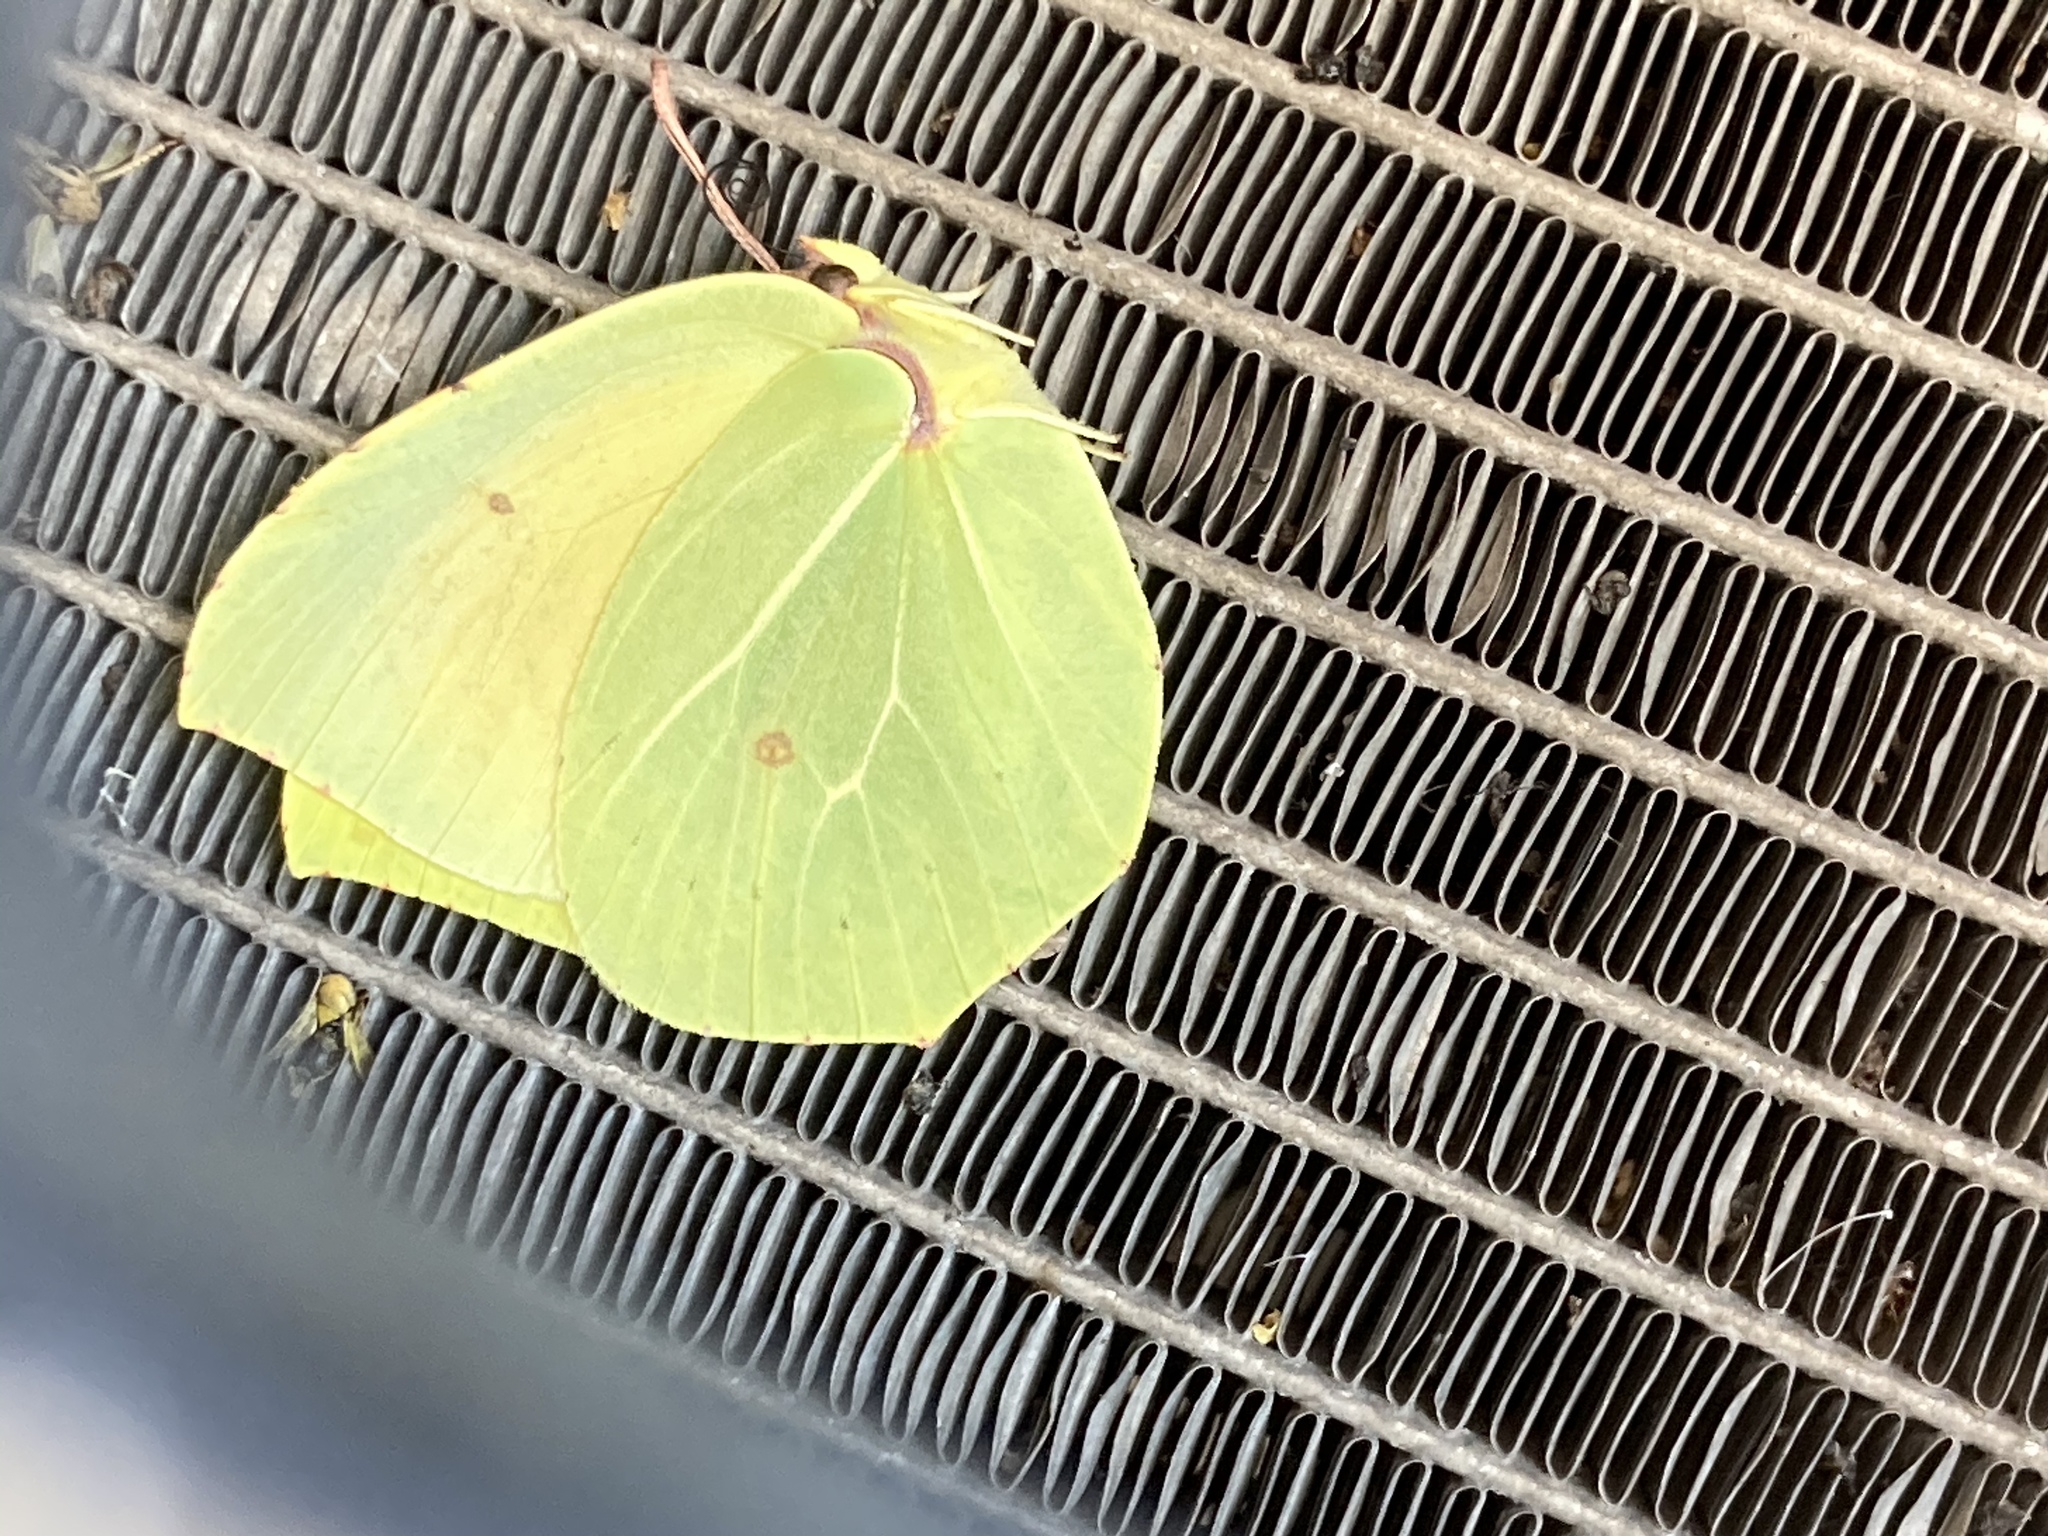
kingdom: Animalia
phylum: Arthropoda
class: Insecta
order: Lepidoptera
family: Pieridae
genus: Gonepteryx
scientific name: Gonepteryx cleopatra
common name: Cleopatra
